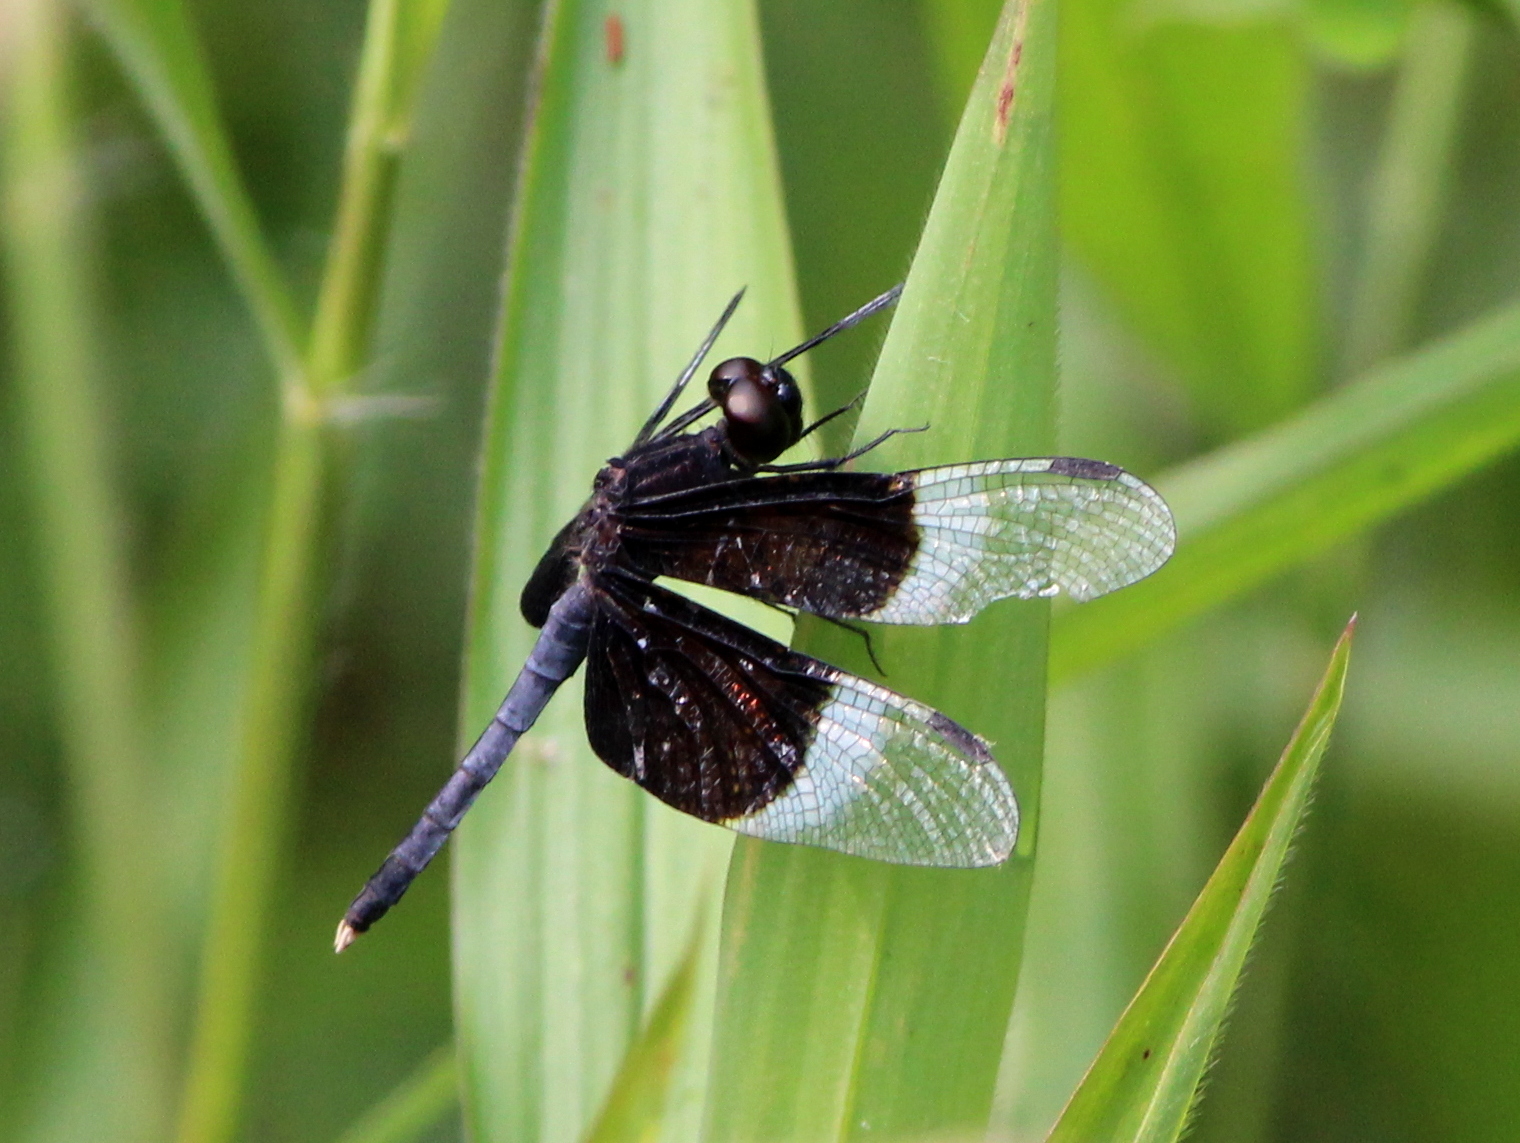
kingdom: Animalia
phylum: Arthropoda
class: Insecta
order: Odonata
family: Libellulidae
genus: Neurothemis
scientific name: Neurothemis tullia
